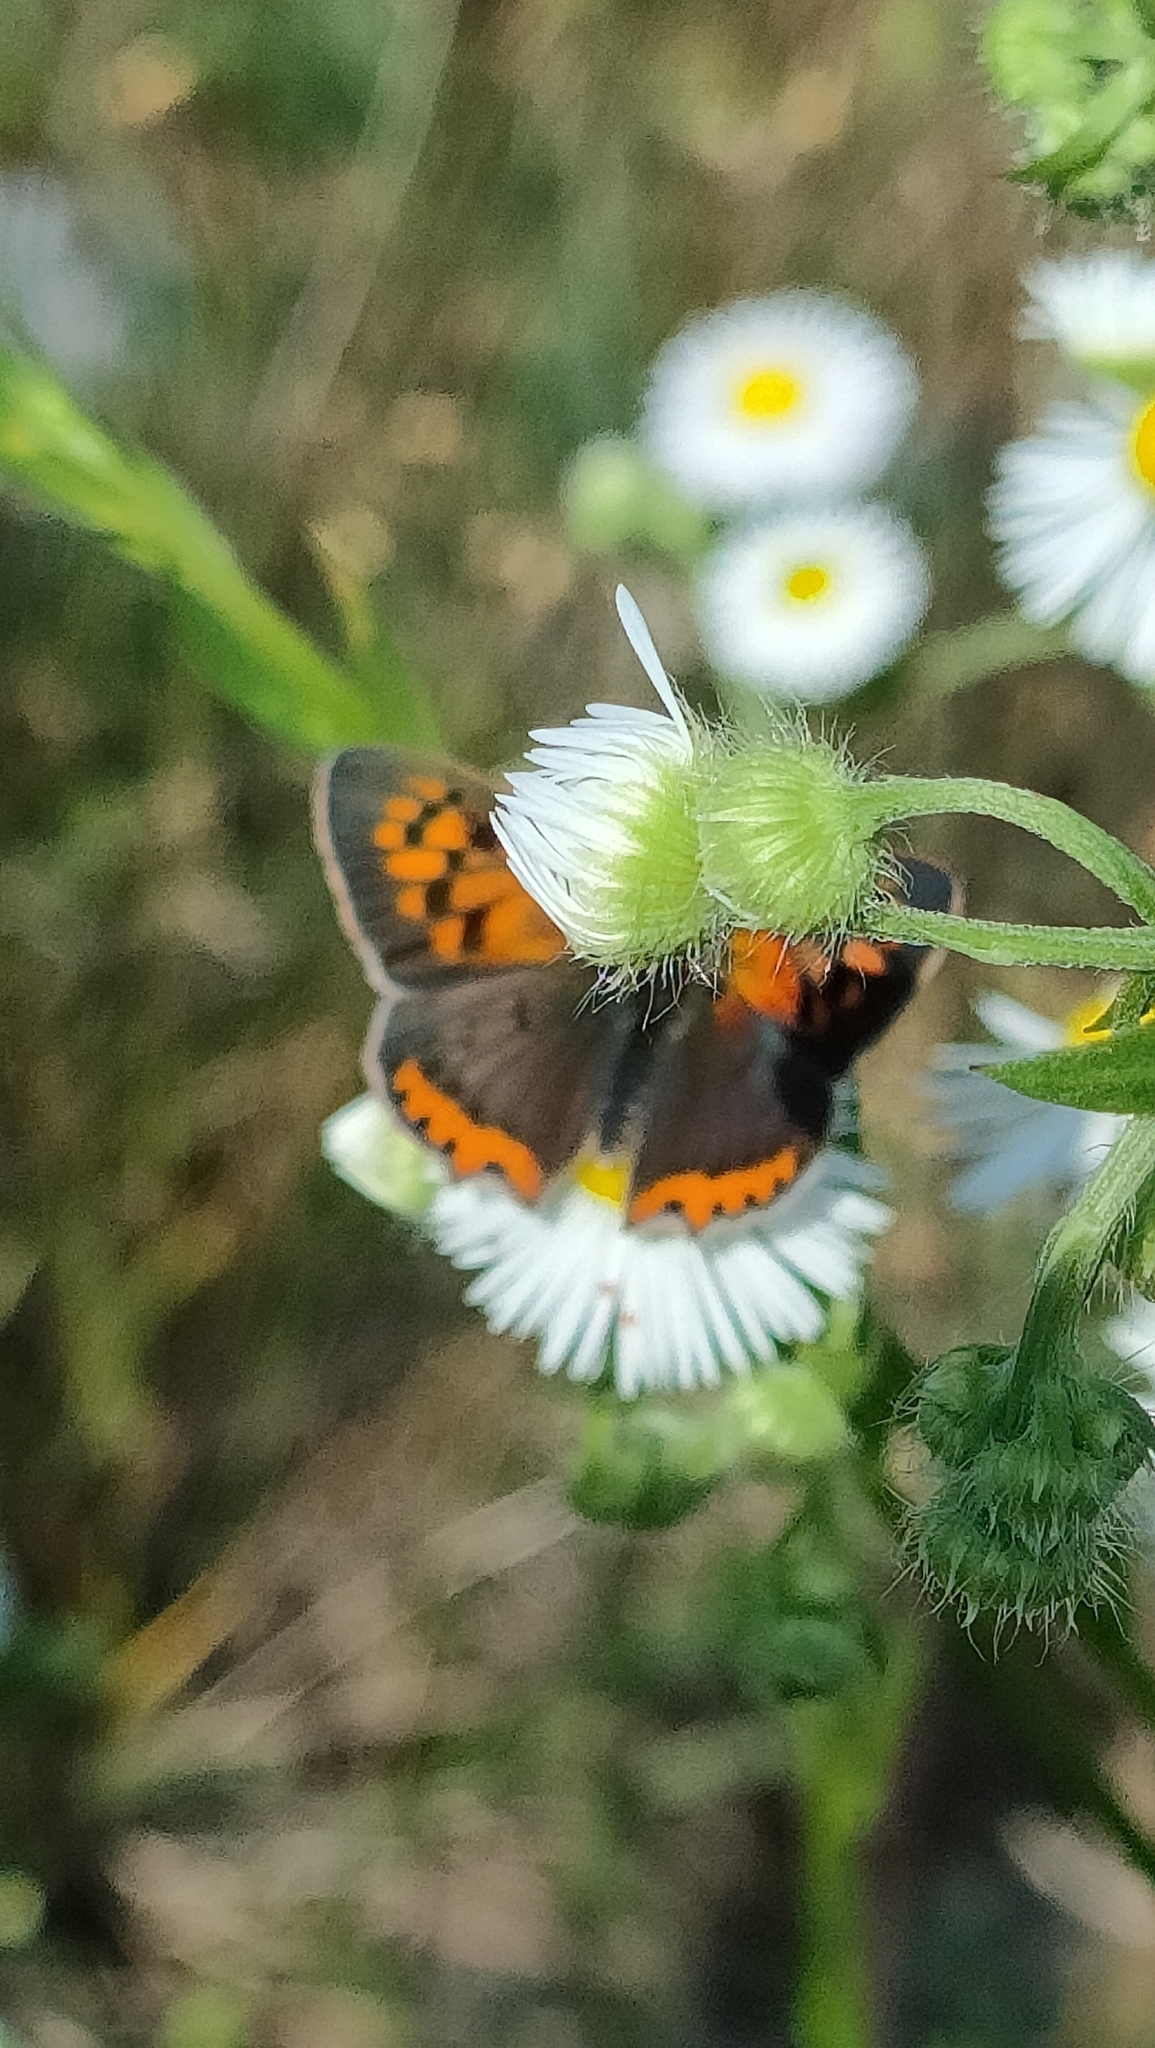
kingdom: Animalia
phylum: Arthropoda
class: Insecta
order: Lepidoptera
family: Lycaenidae
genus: Lycaena
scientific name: Lycaena phlaeas
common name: Small copper
